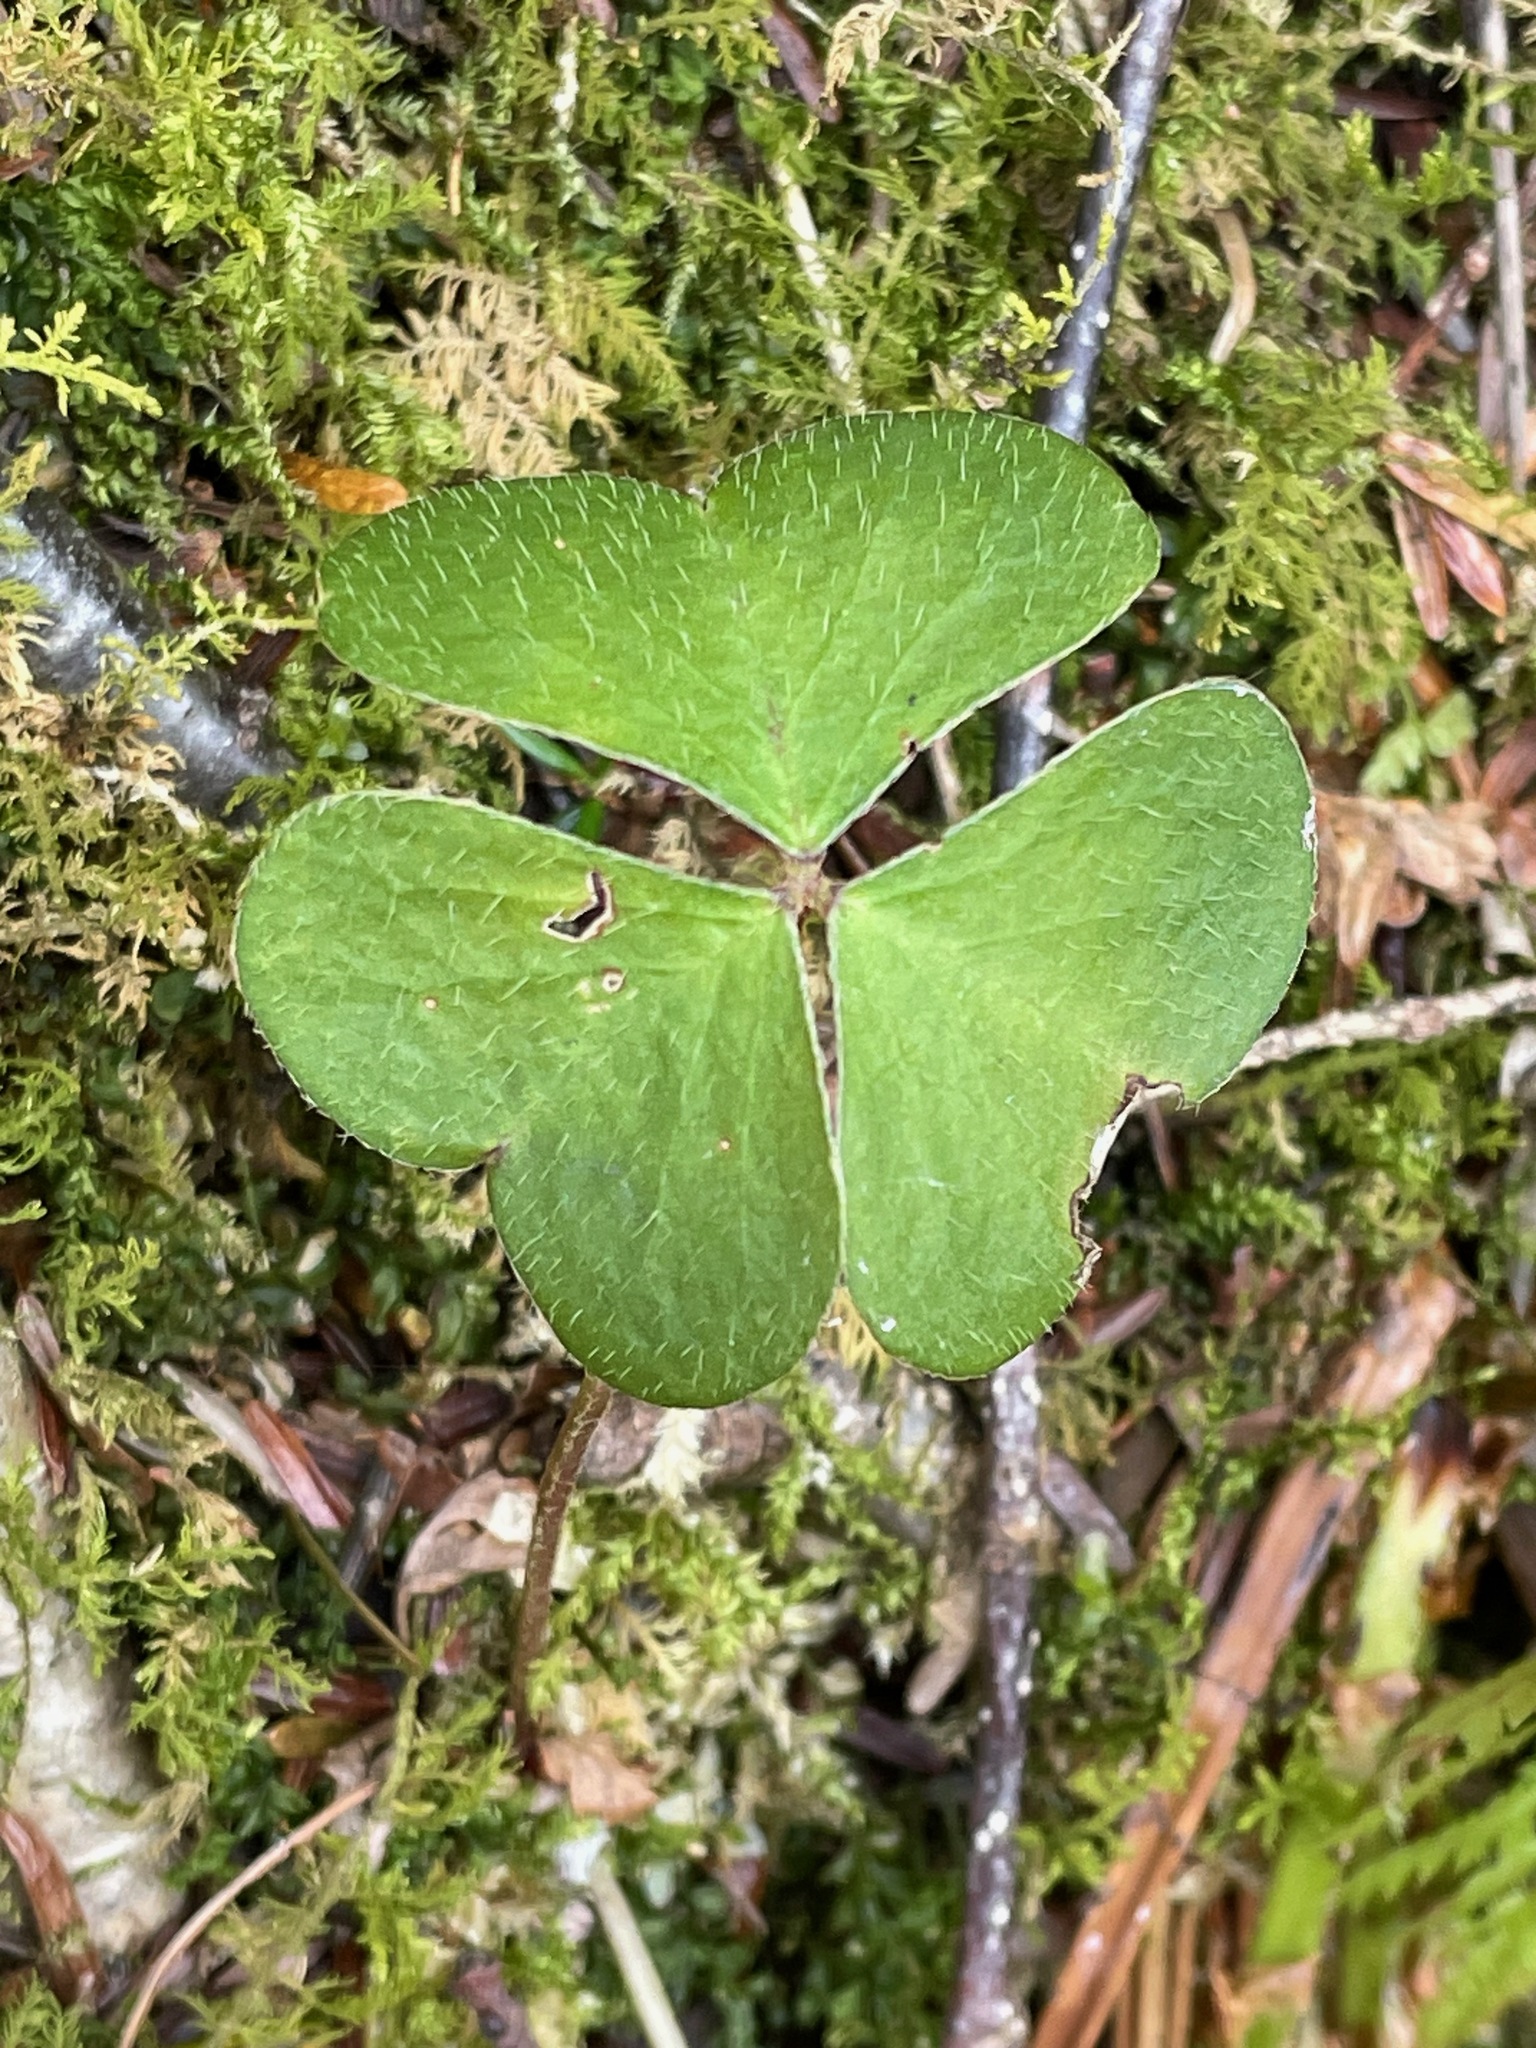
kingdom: Plantae
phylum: Tracheophyta
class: Magnoliopsida
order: Oxalidales
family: Oxalidaceae
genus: Oxalis
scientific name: Oxalis montana
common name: American wood-sorrel
